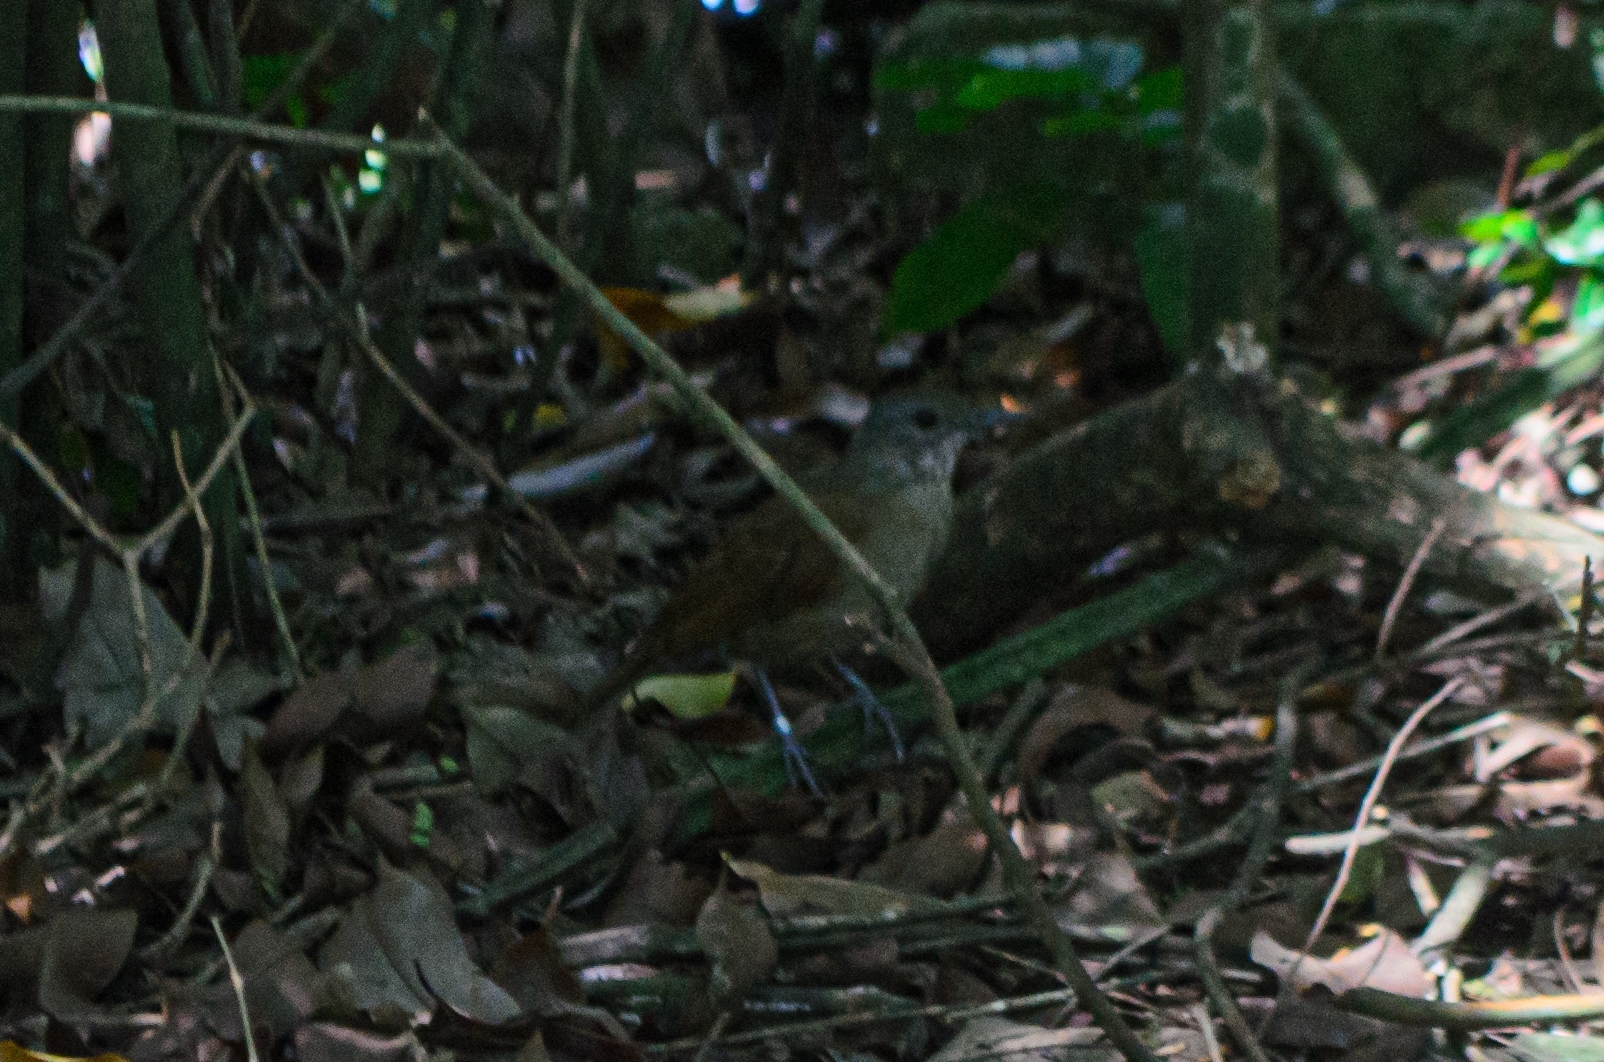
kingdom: Animalia
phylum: Chordata
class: Aves
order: Passeriformes
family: Turdidae
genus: Turdus
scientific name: Turdus leucomelas
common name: Pale-breasted thrush
